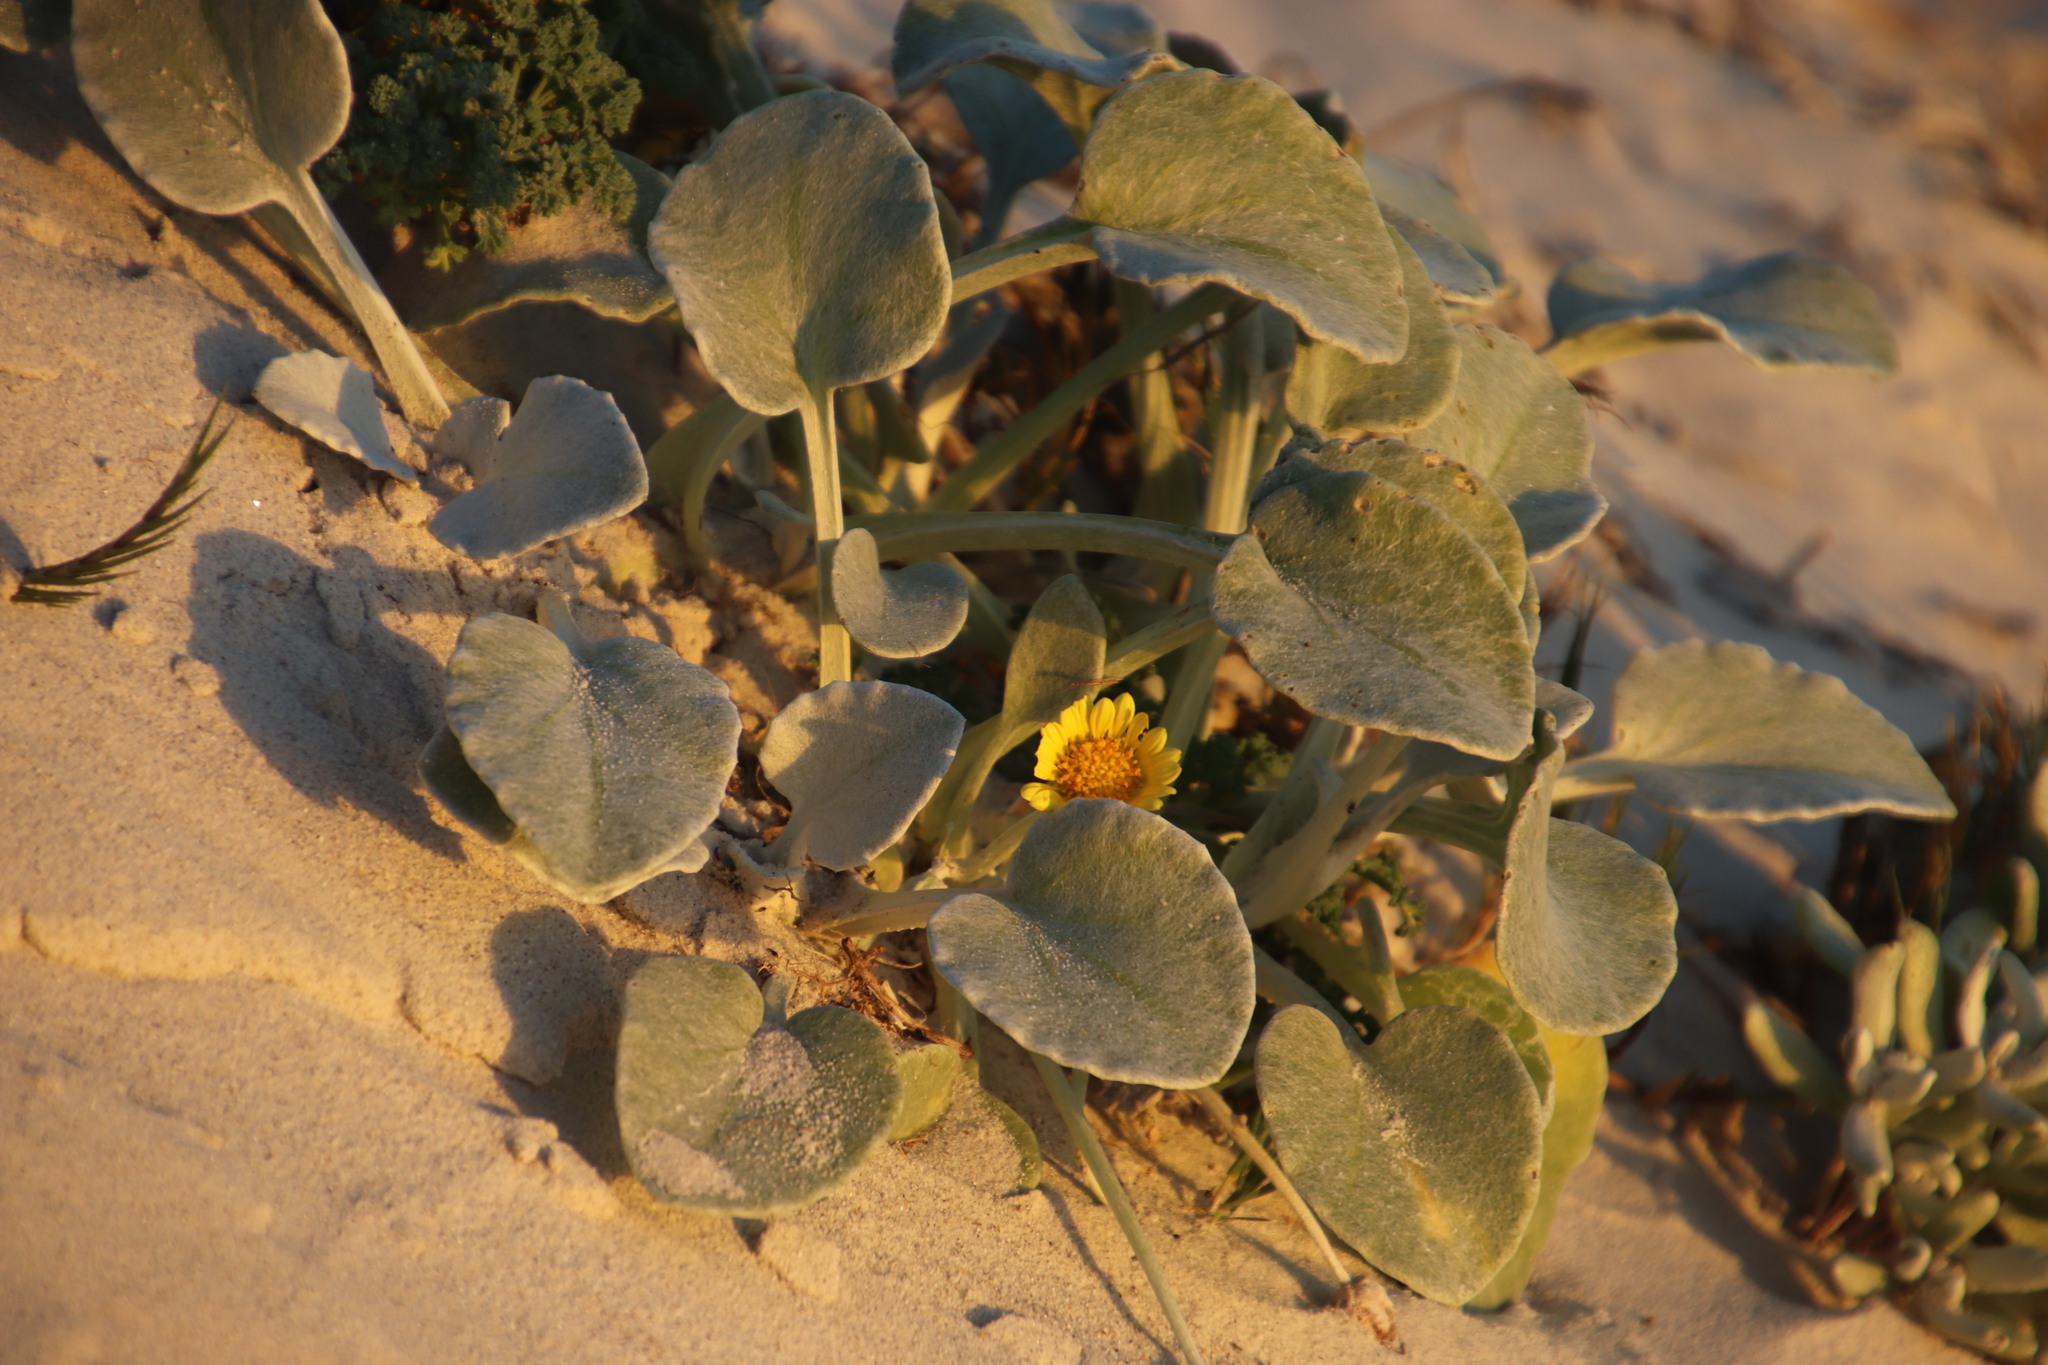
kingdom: Plantae
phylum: Tracheophyta
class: Magnoliopsida
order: Asterales
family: Asteraceae
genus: Arctotheca
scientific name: Arctotheca populifolia
